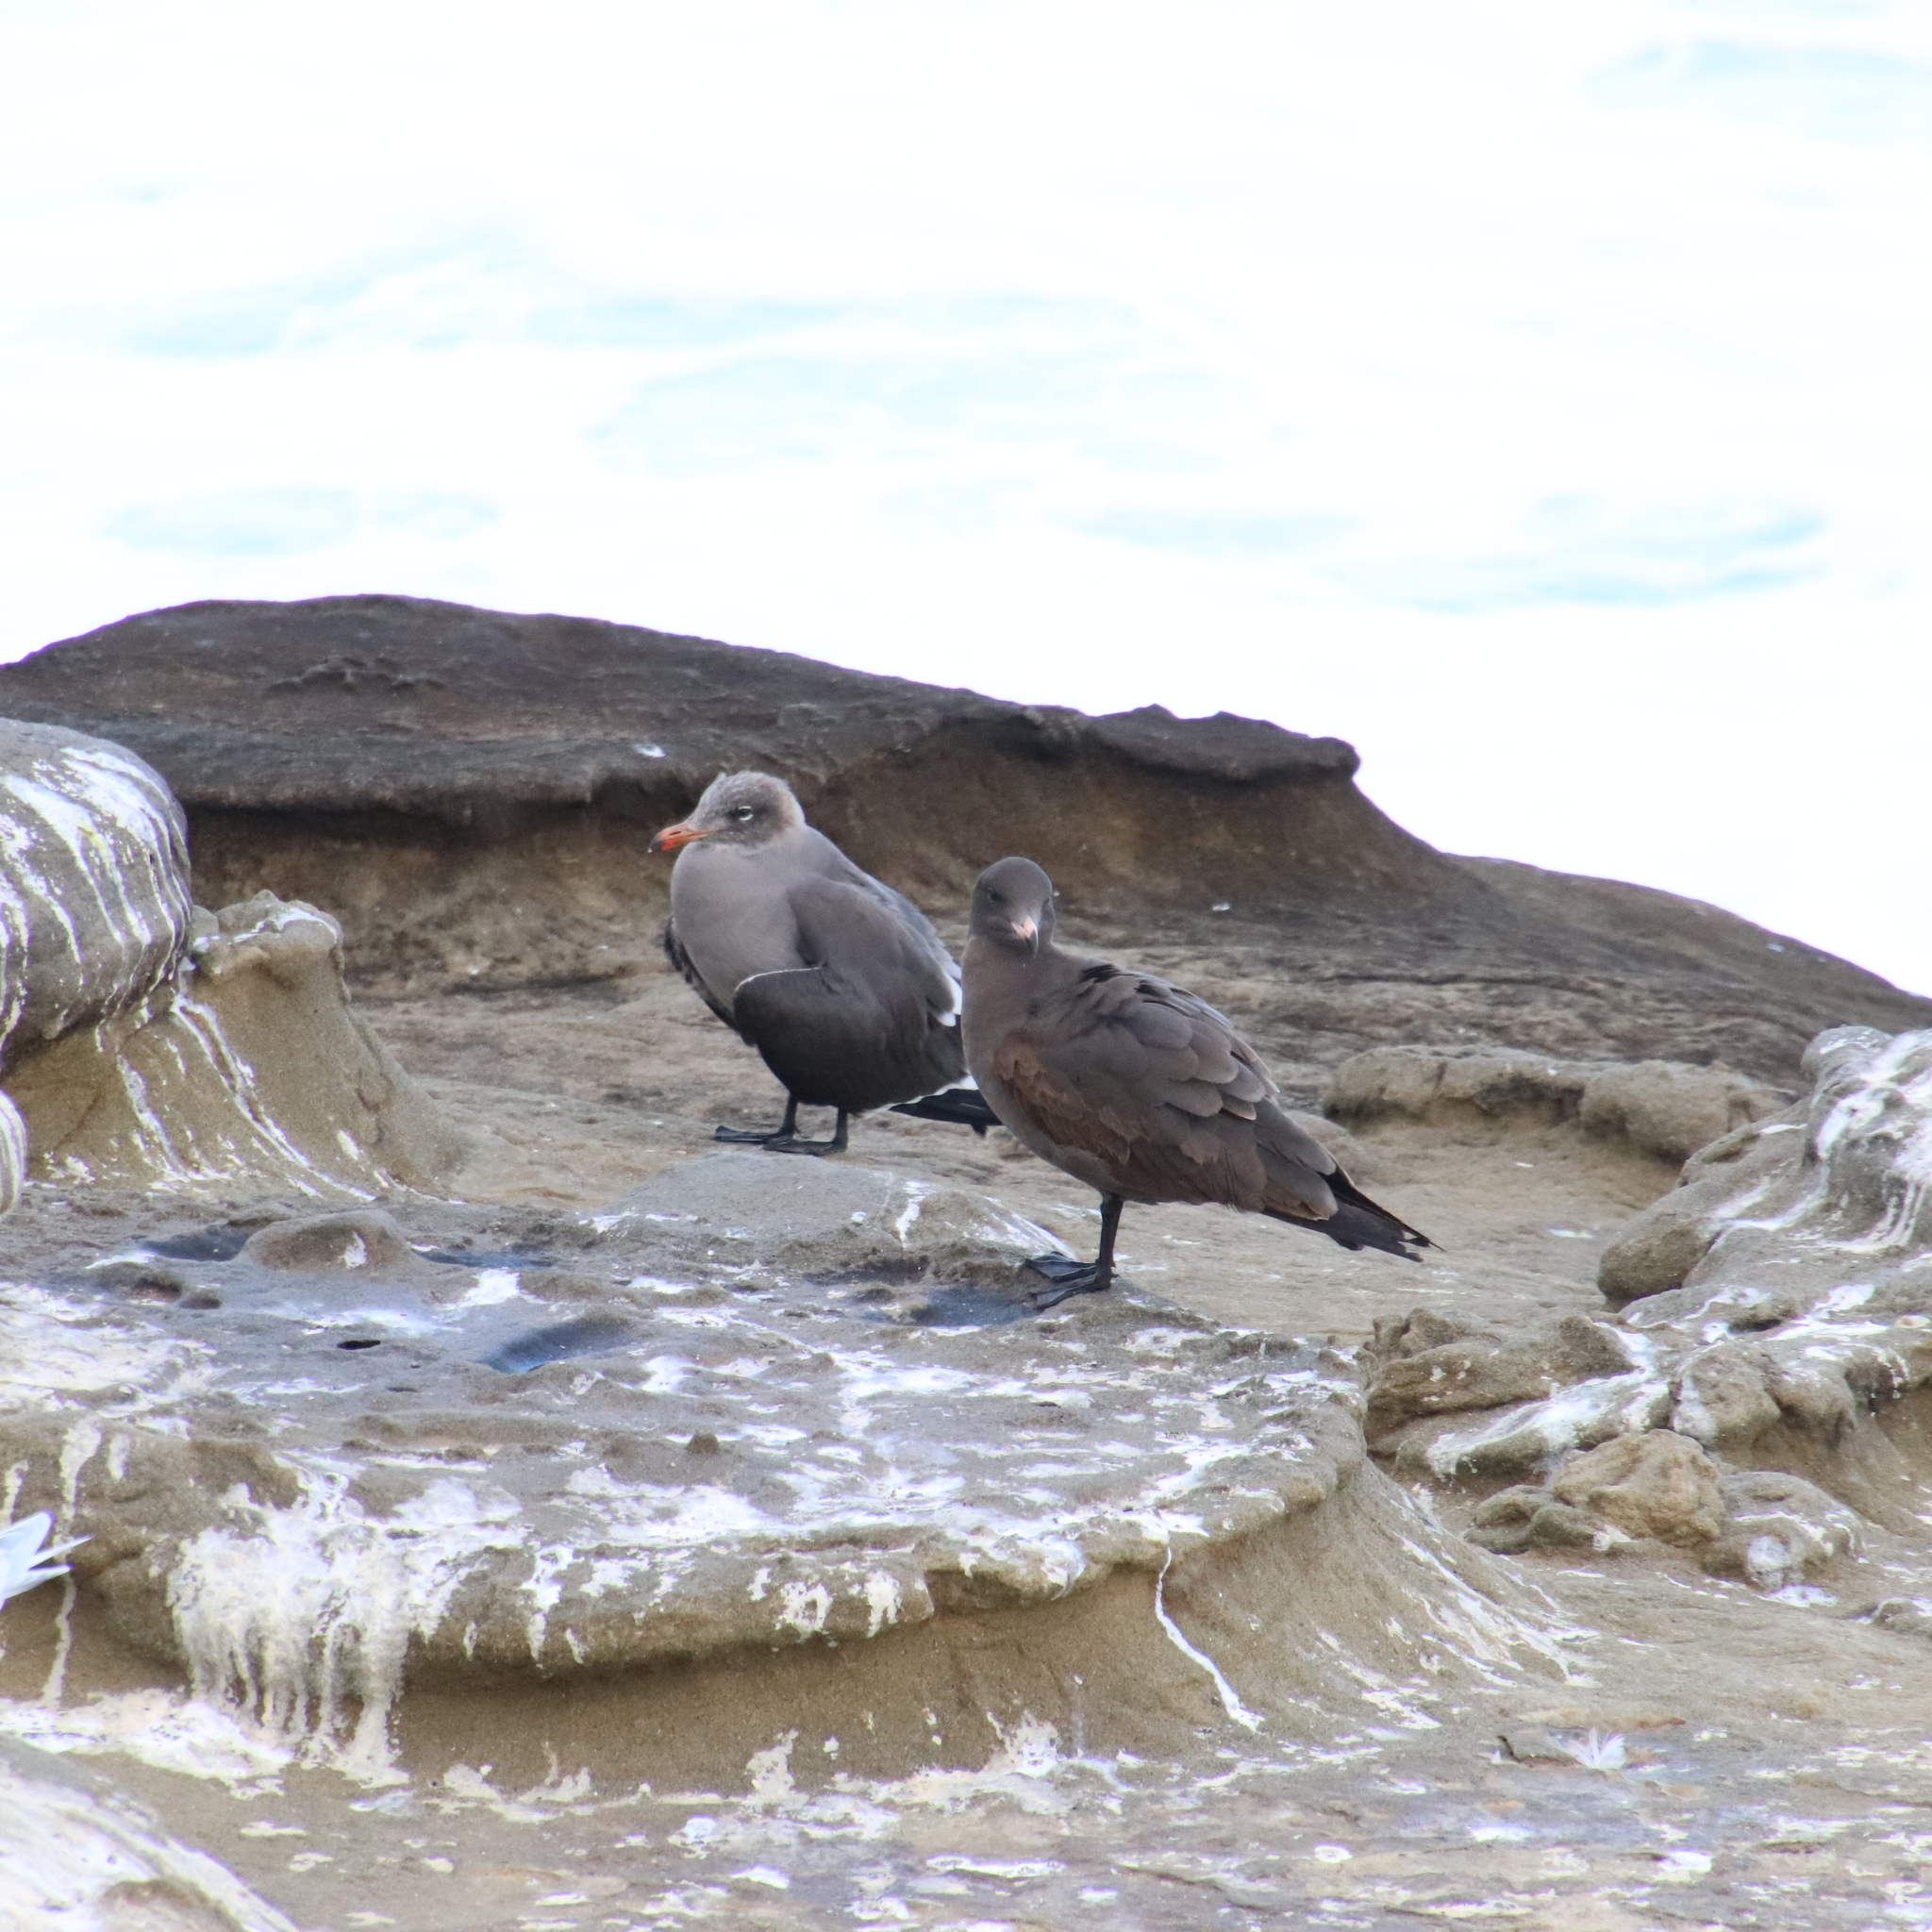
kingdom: Animalia
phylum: Chordata
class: Aves
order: Charadriiformes
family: Laridae
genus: Larus
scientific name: Larus heermanni
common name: Heermann's gull
